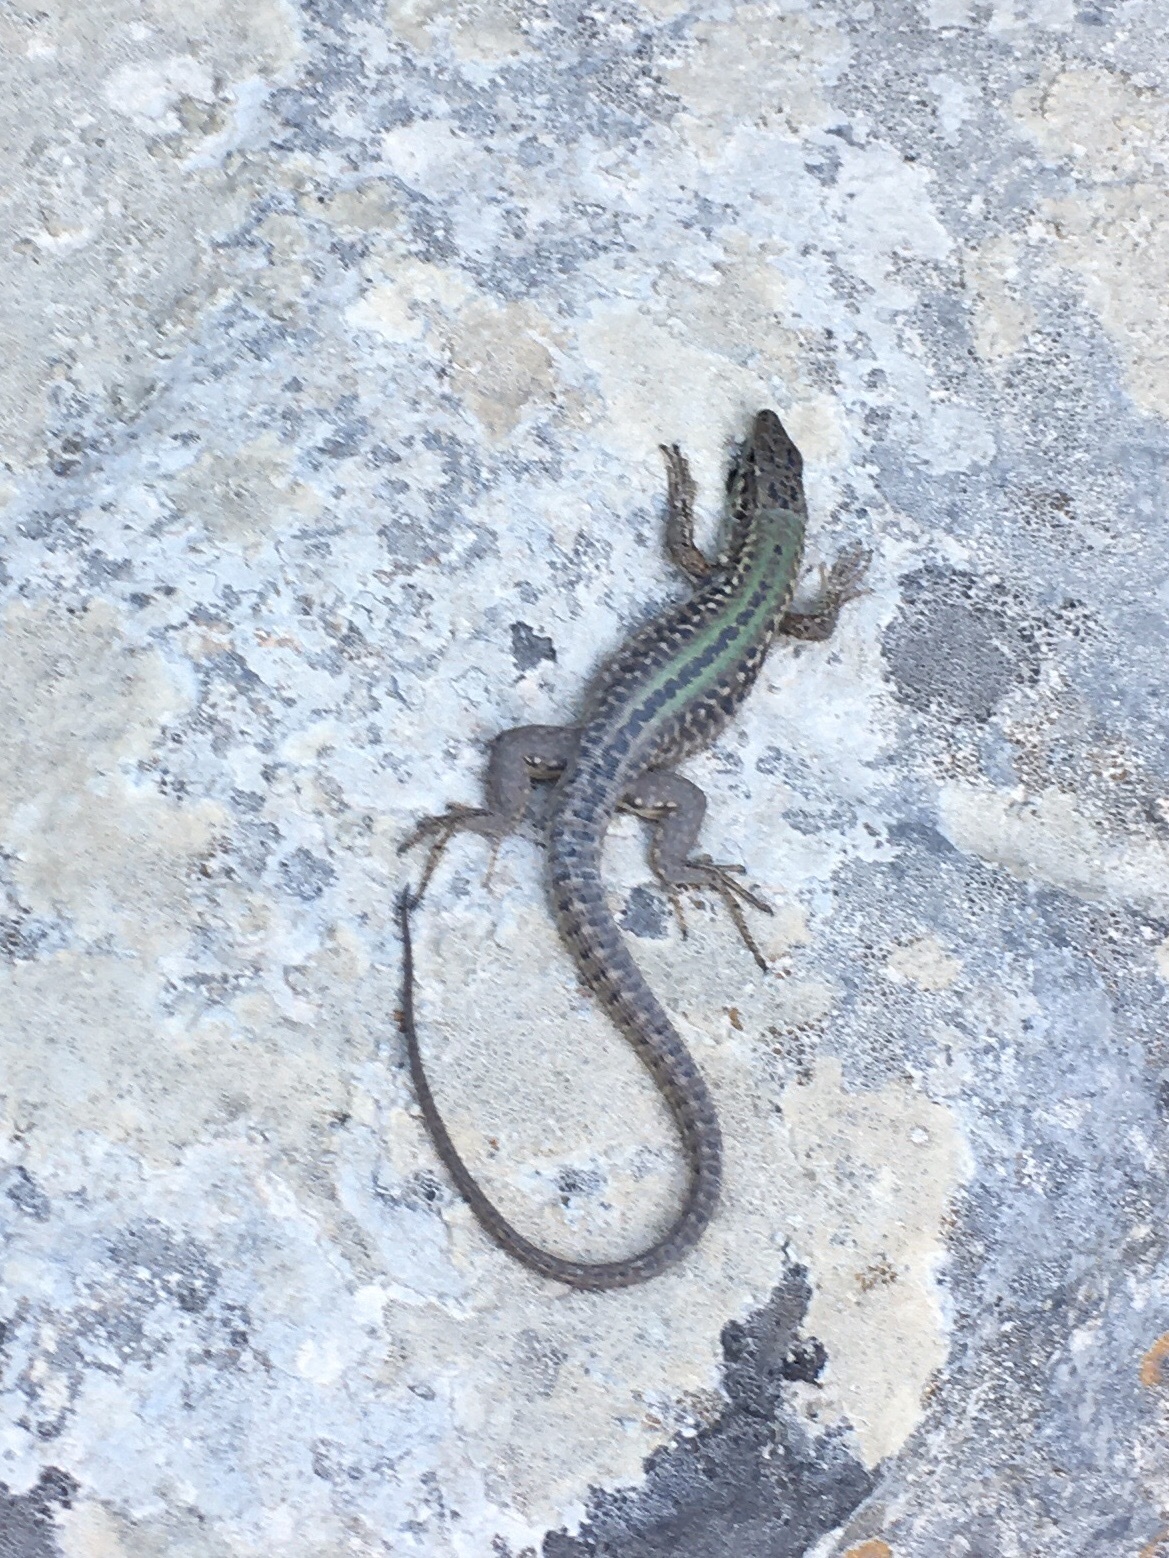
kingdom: Animalia
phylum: Chordata
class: Squamata
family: Lacertidae
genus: Podarcis
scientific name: Podarcis siculus
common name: Italian wall lizard
